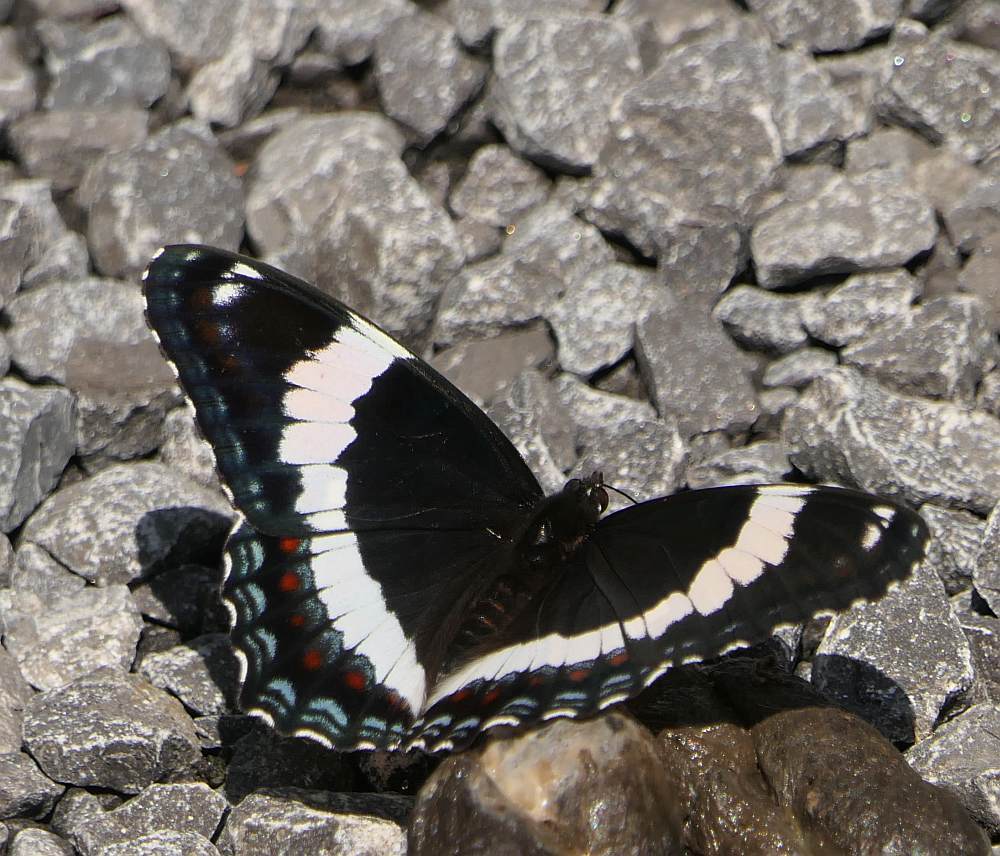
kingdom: Animalia
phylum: Arthropoda
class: Insecta
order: Lepidoptera
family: Nymphalidae
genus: Limenitis
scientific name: Limenitis arthemis
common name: Red-spotted admiral
